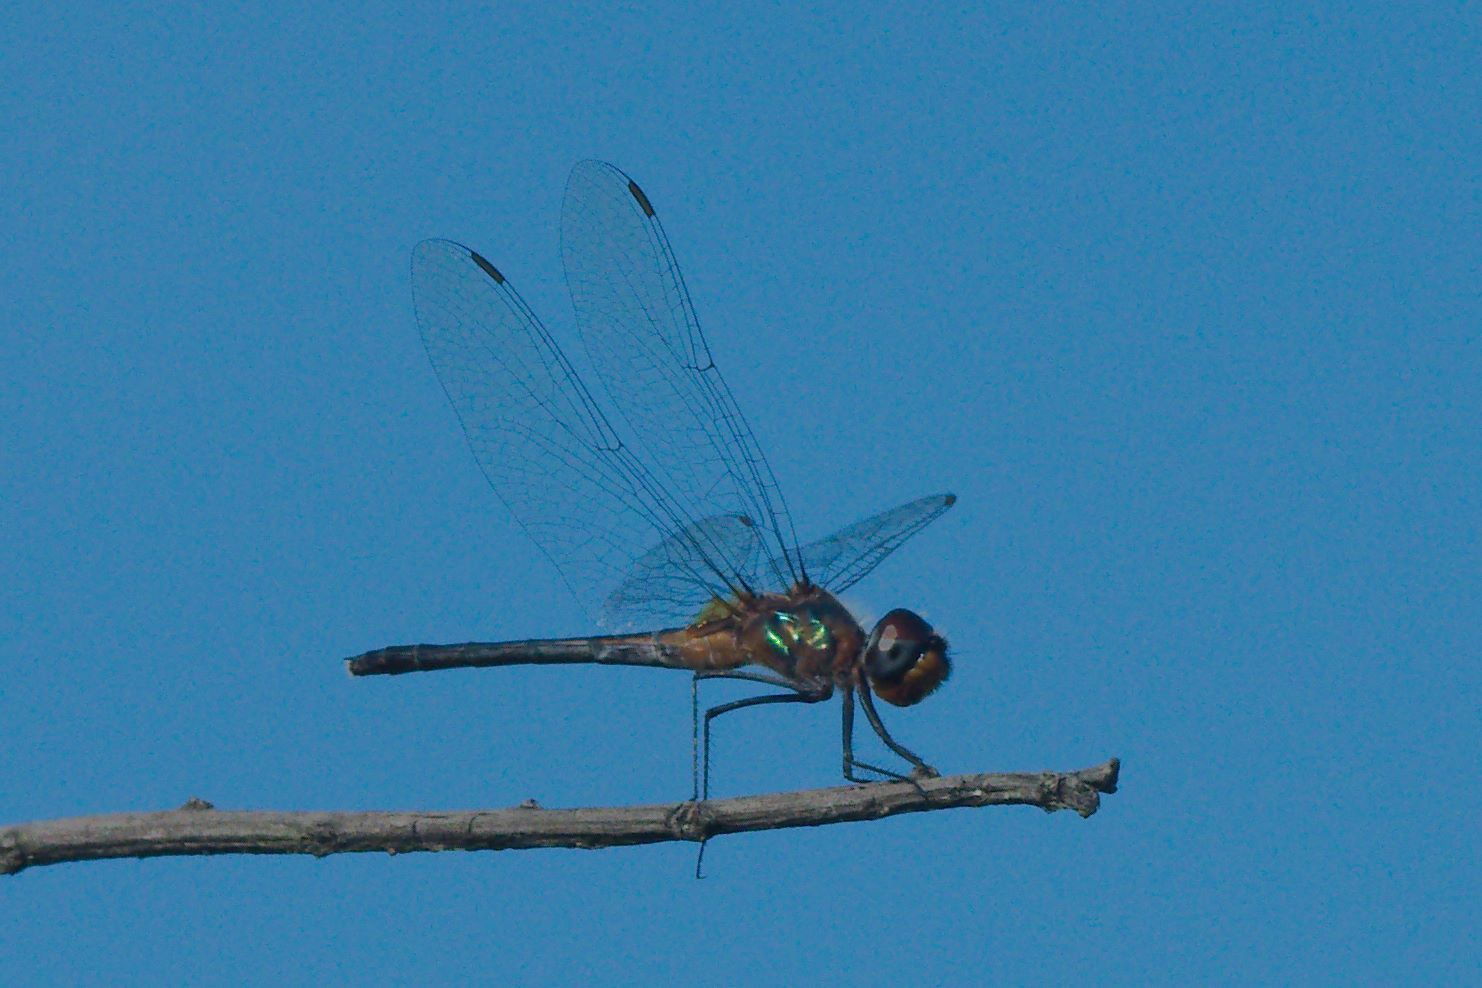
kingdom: Animalia
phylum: Arthropoda
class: Insecta
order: Odonata
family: Libellulidae
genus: Idiataphe
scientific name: Idiataphe cubensis
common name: Metallic pennant
